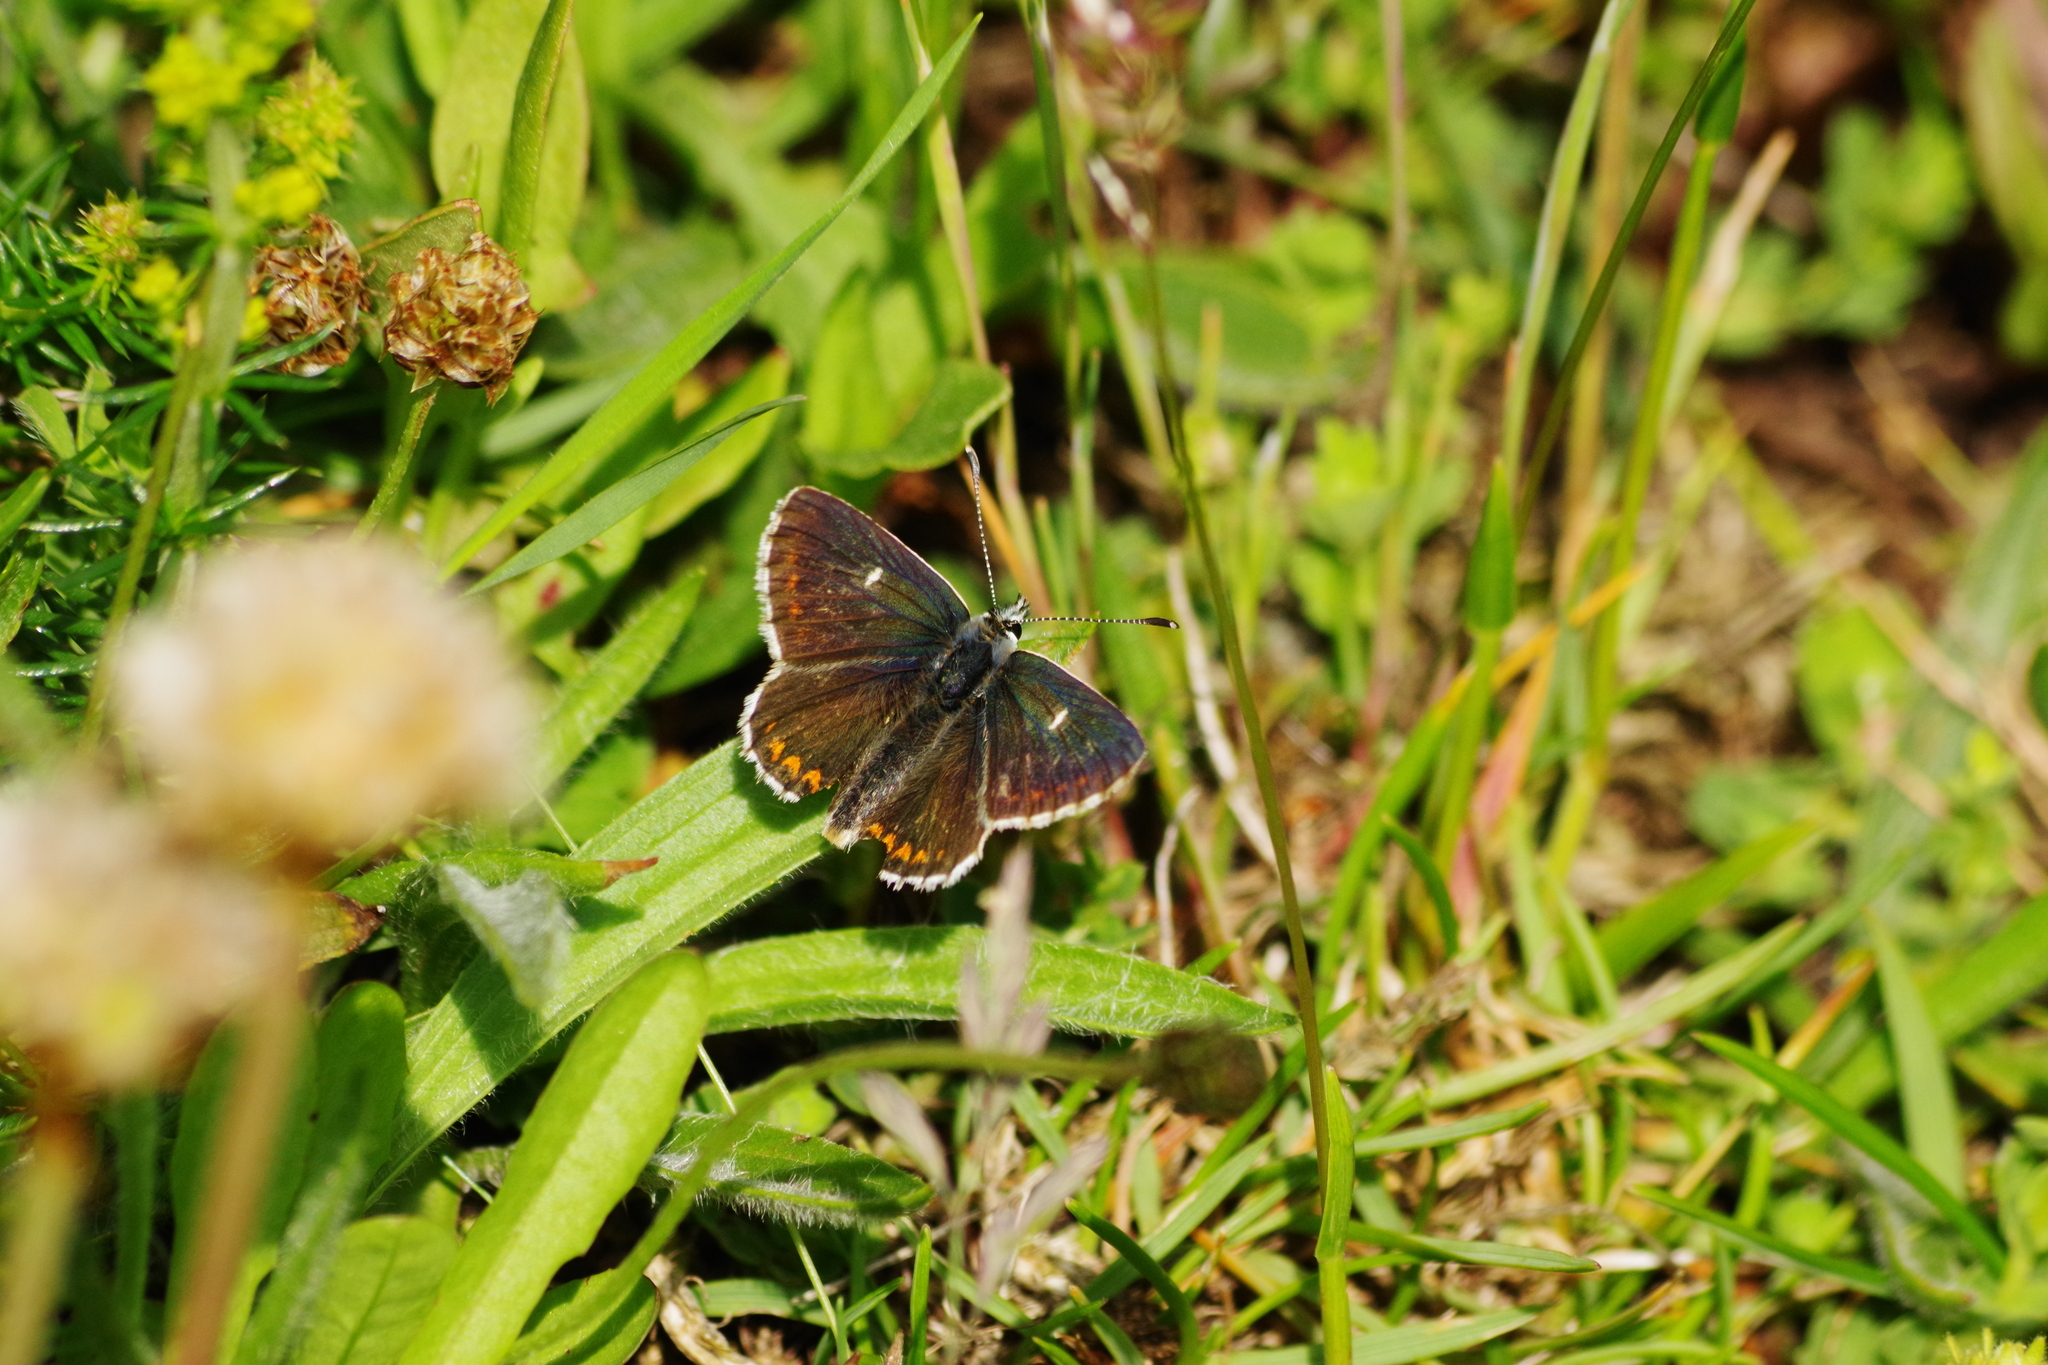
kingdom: Animalia
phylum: Arthropoda
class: Insecta
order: Lepidoptera
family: Lycaenidae
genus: Aricia
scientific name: Aricia artaxerxes
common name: Northern brown argus
